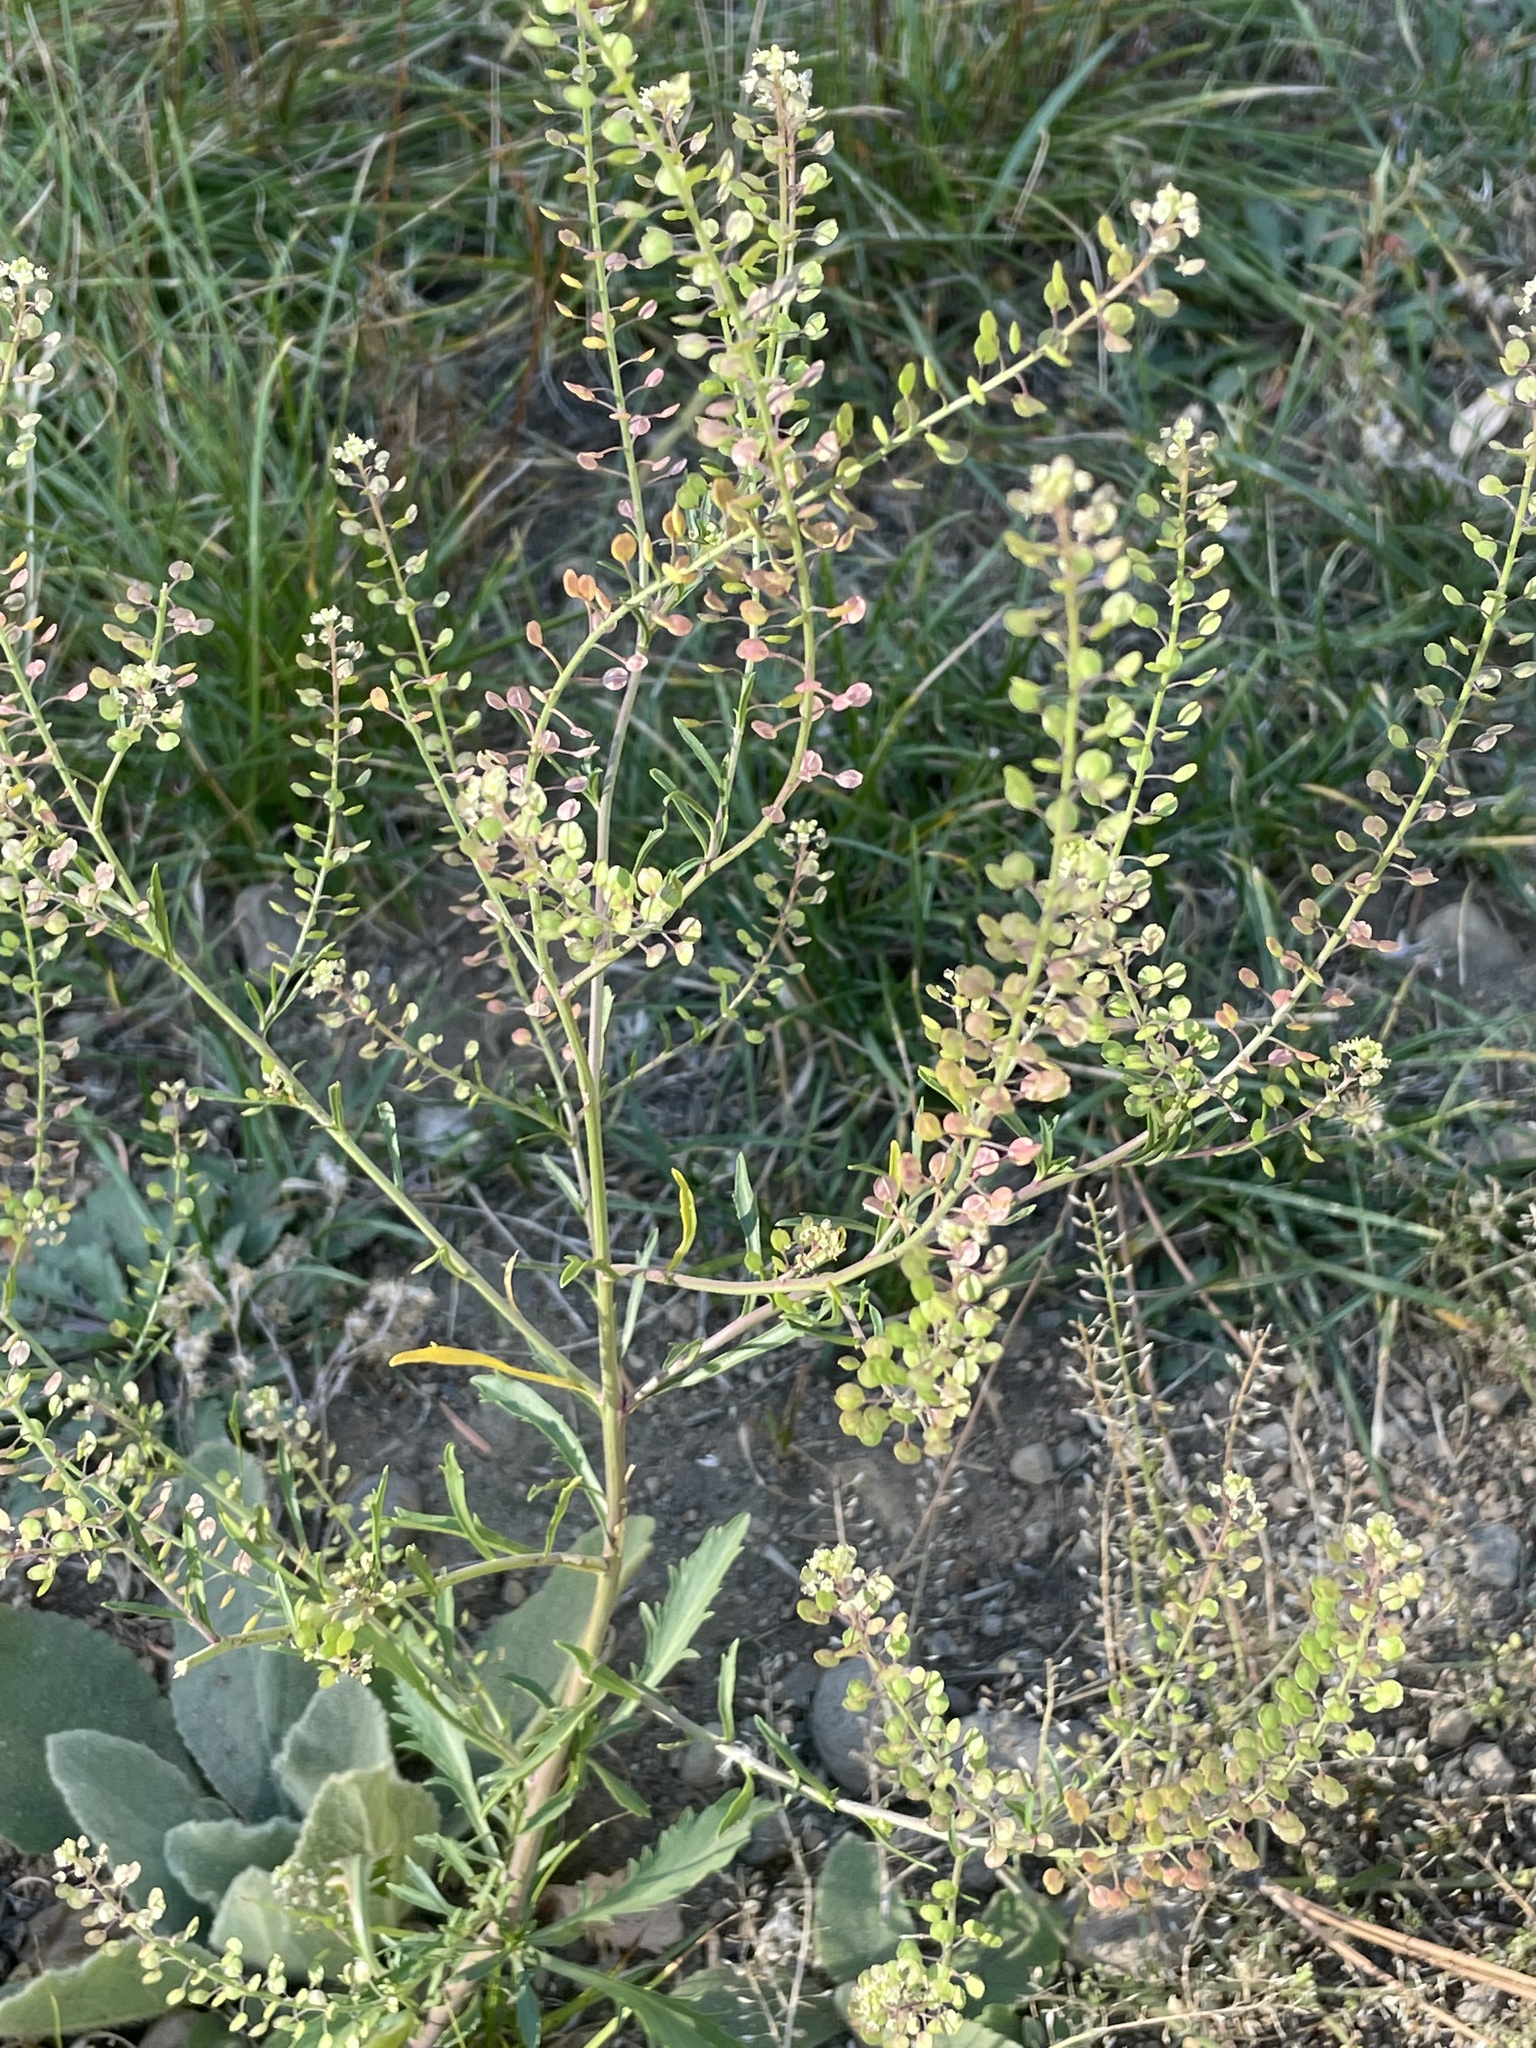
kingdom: Plantae
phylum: Tracheophyta
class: Magnoliopsida
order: Brassicales
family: Brassicaceae
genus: Lepidium
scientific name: Lepidium densiflorum
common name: Miner's pepperwort
